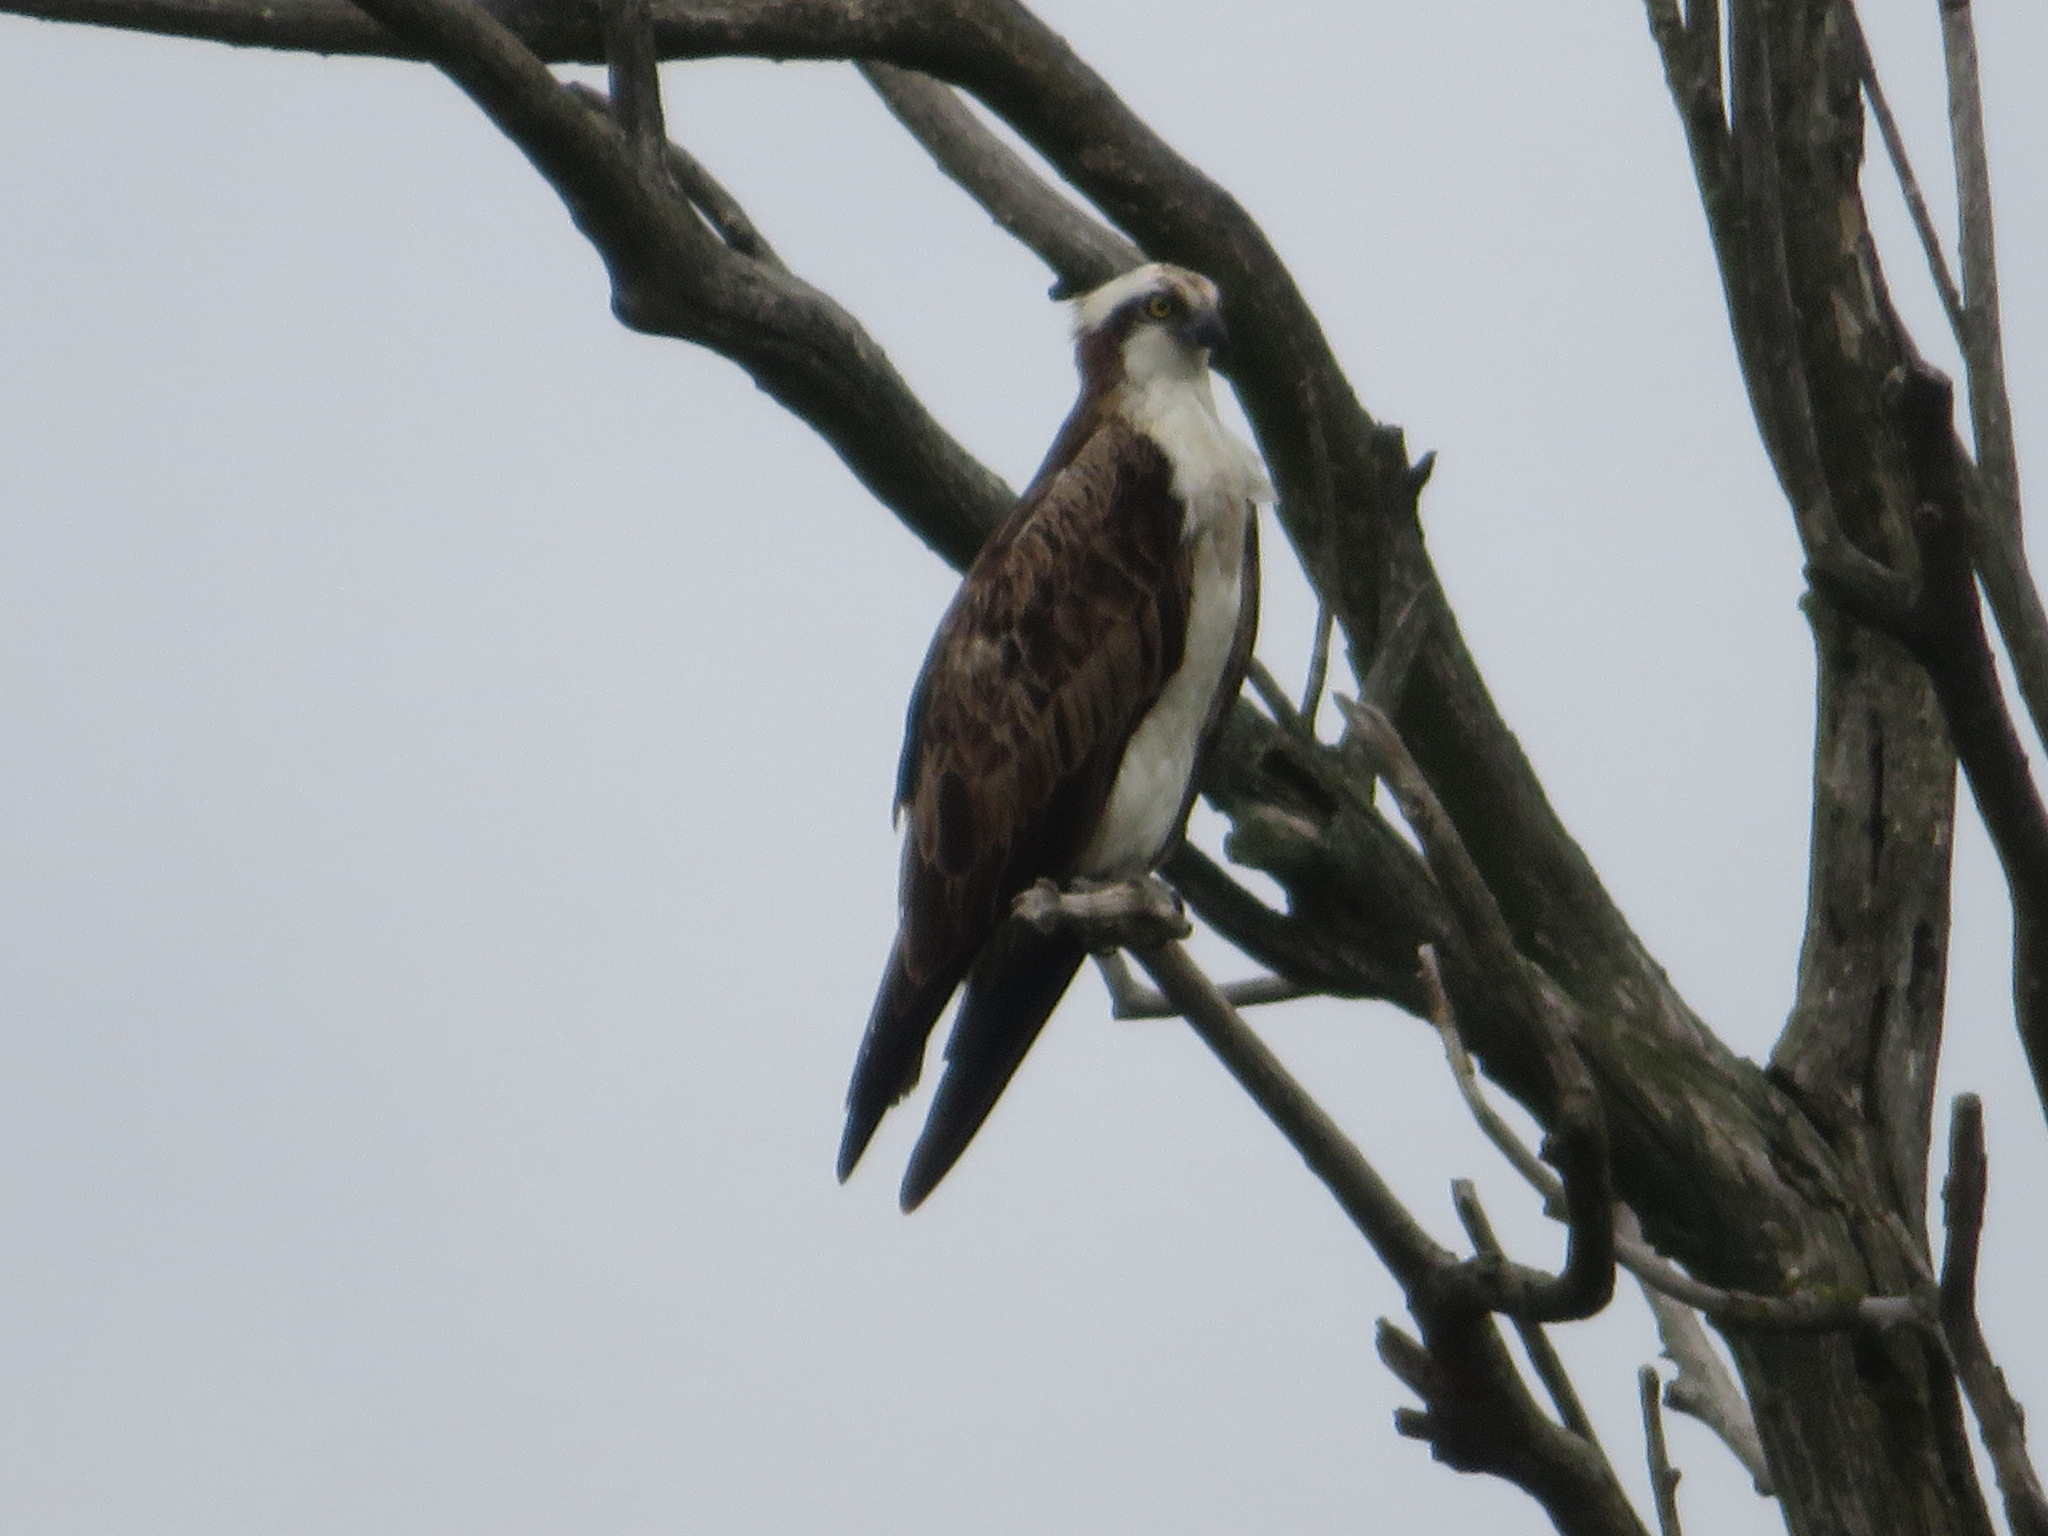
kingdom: Animalia
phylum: Chordata
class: Aves
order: Accipitriformes
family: Pandionidae
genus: Pandion
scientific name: Pandion haliaetus
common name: Osprey
